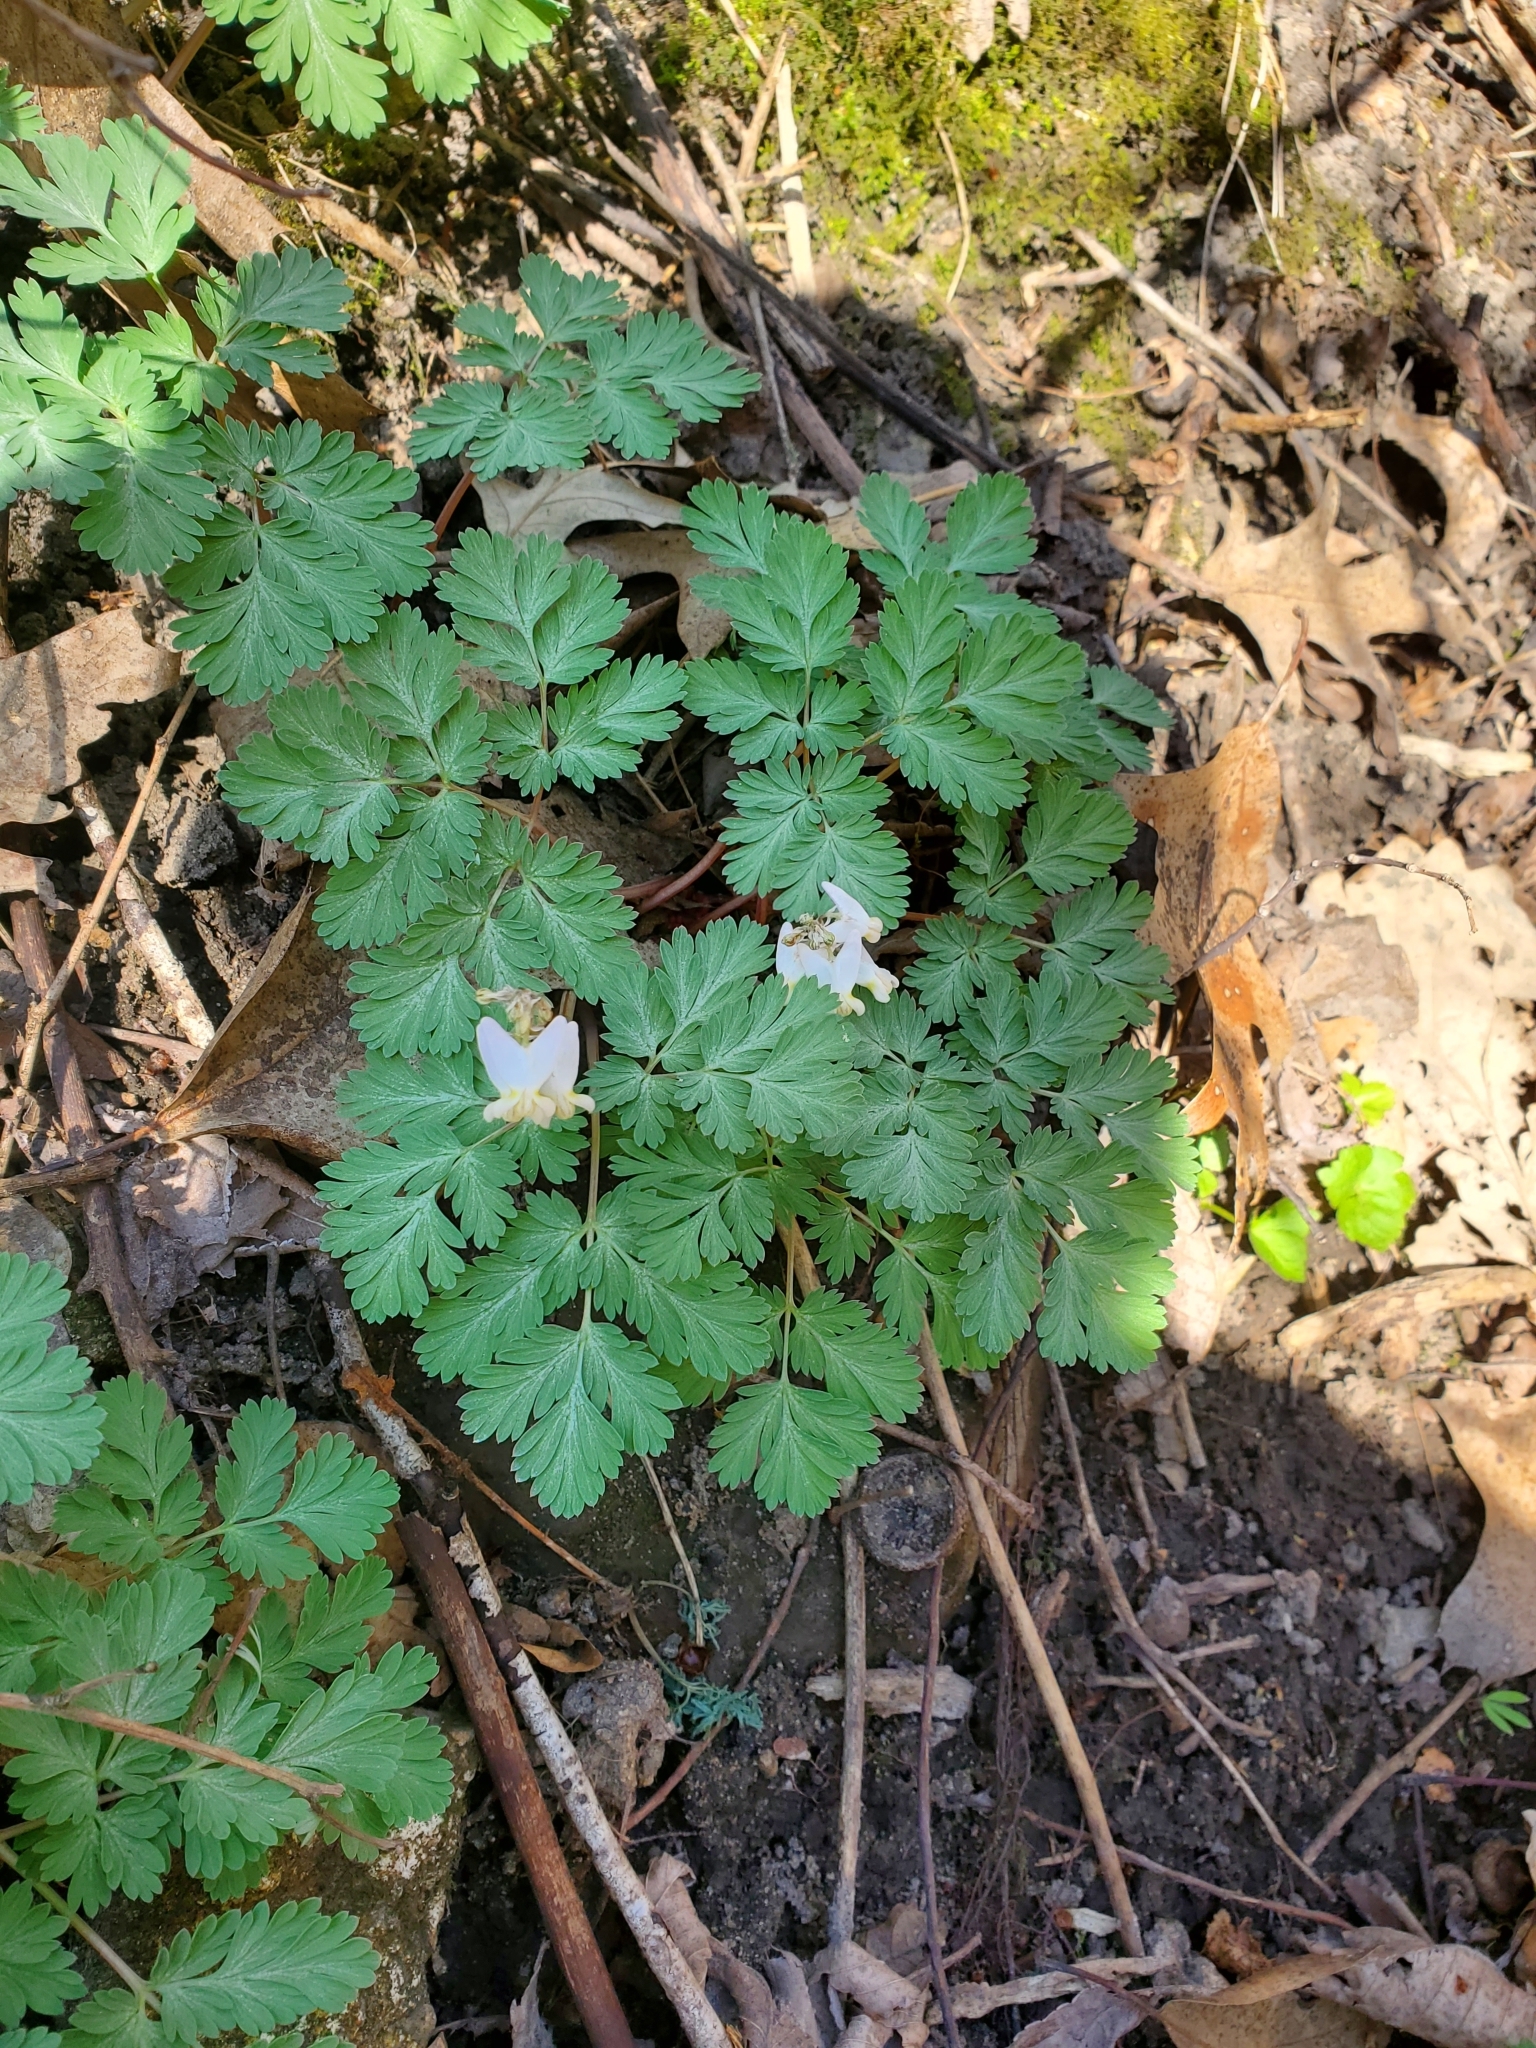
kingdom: Plantae
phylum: Tracheophyta
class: Magnoliopsida
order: Ranunculales
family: Papaveraceae
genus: Dicentra
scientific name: Dicentra cucullaria
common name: Dutchman's breeches
